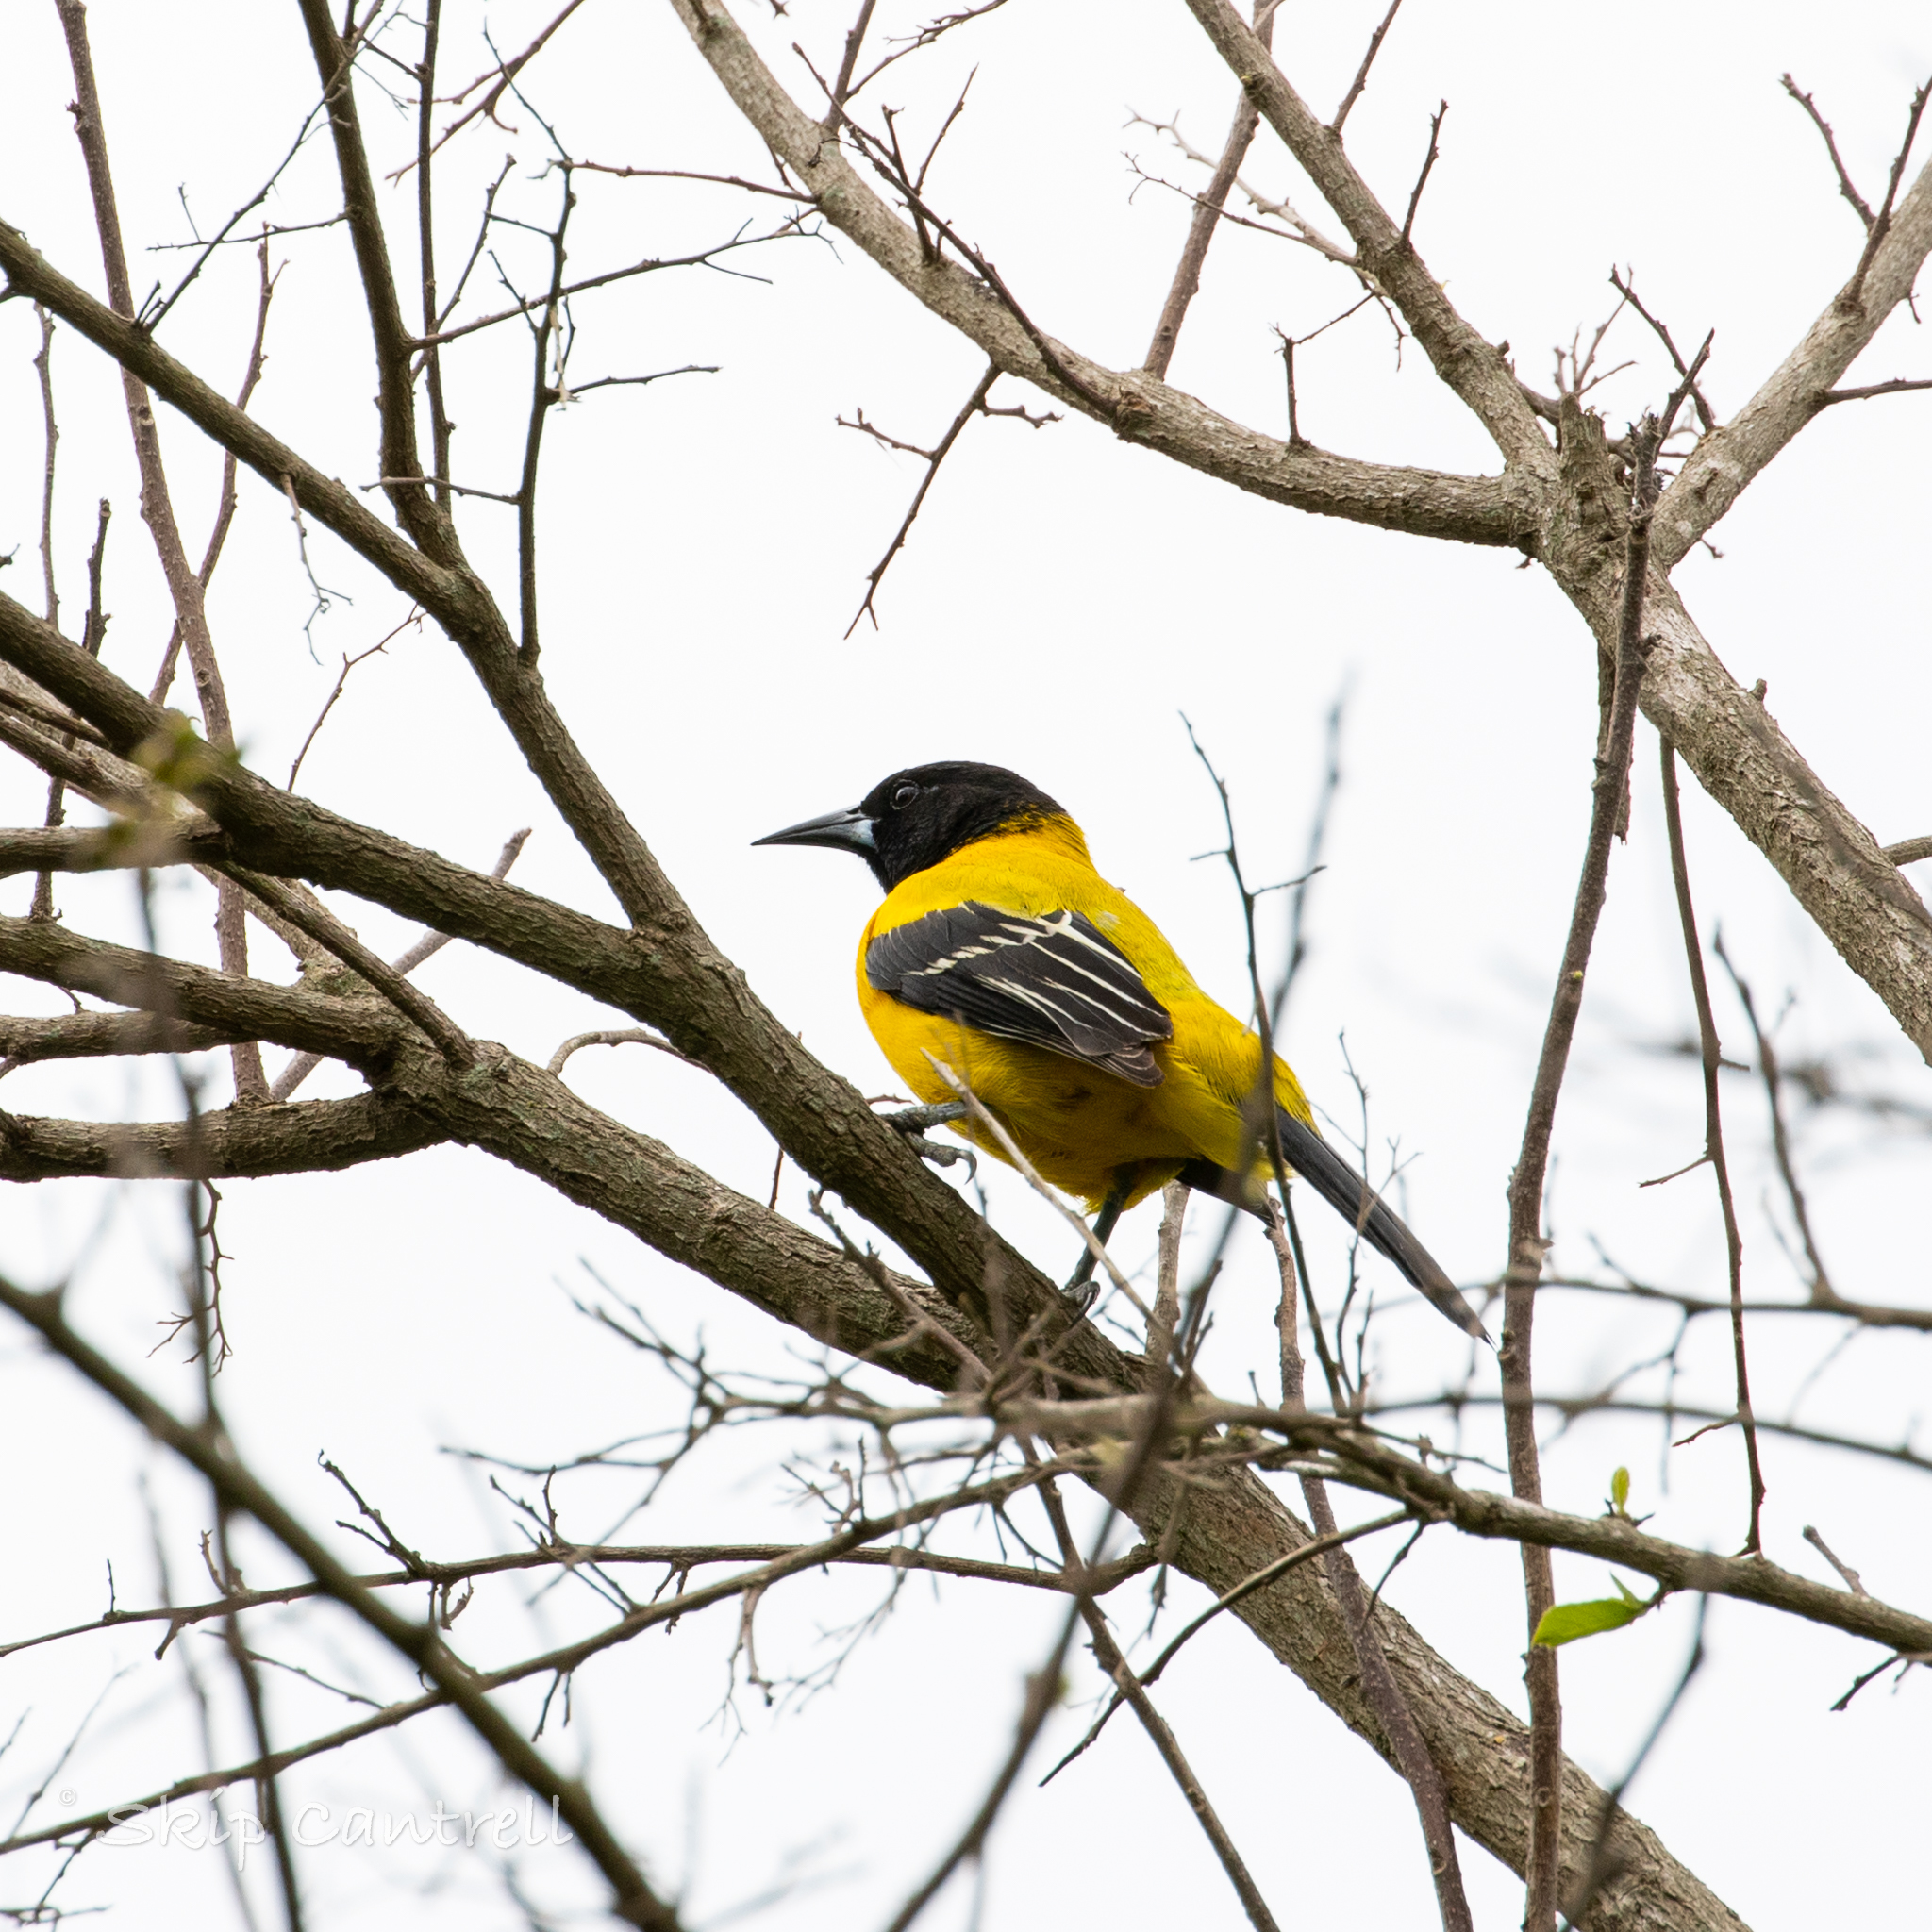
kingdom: Animalia
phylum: Chordata
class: Aves
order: Passeriformes
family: Icteridae
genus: Icterus
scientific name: Icterus graduacauda
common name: Audubon's oriole
